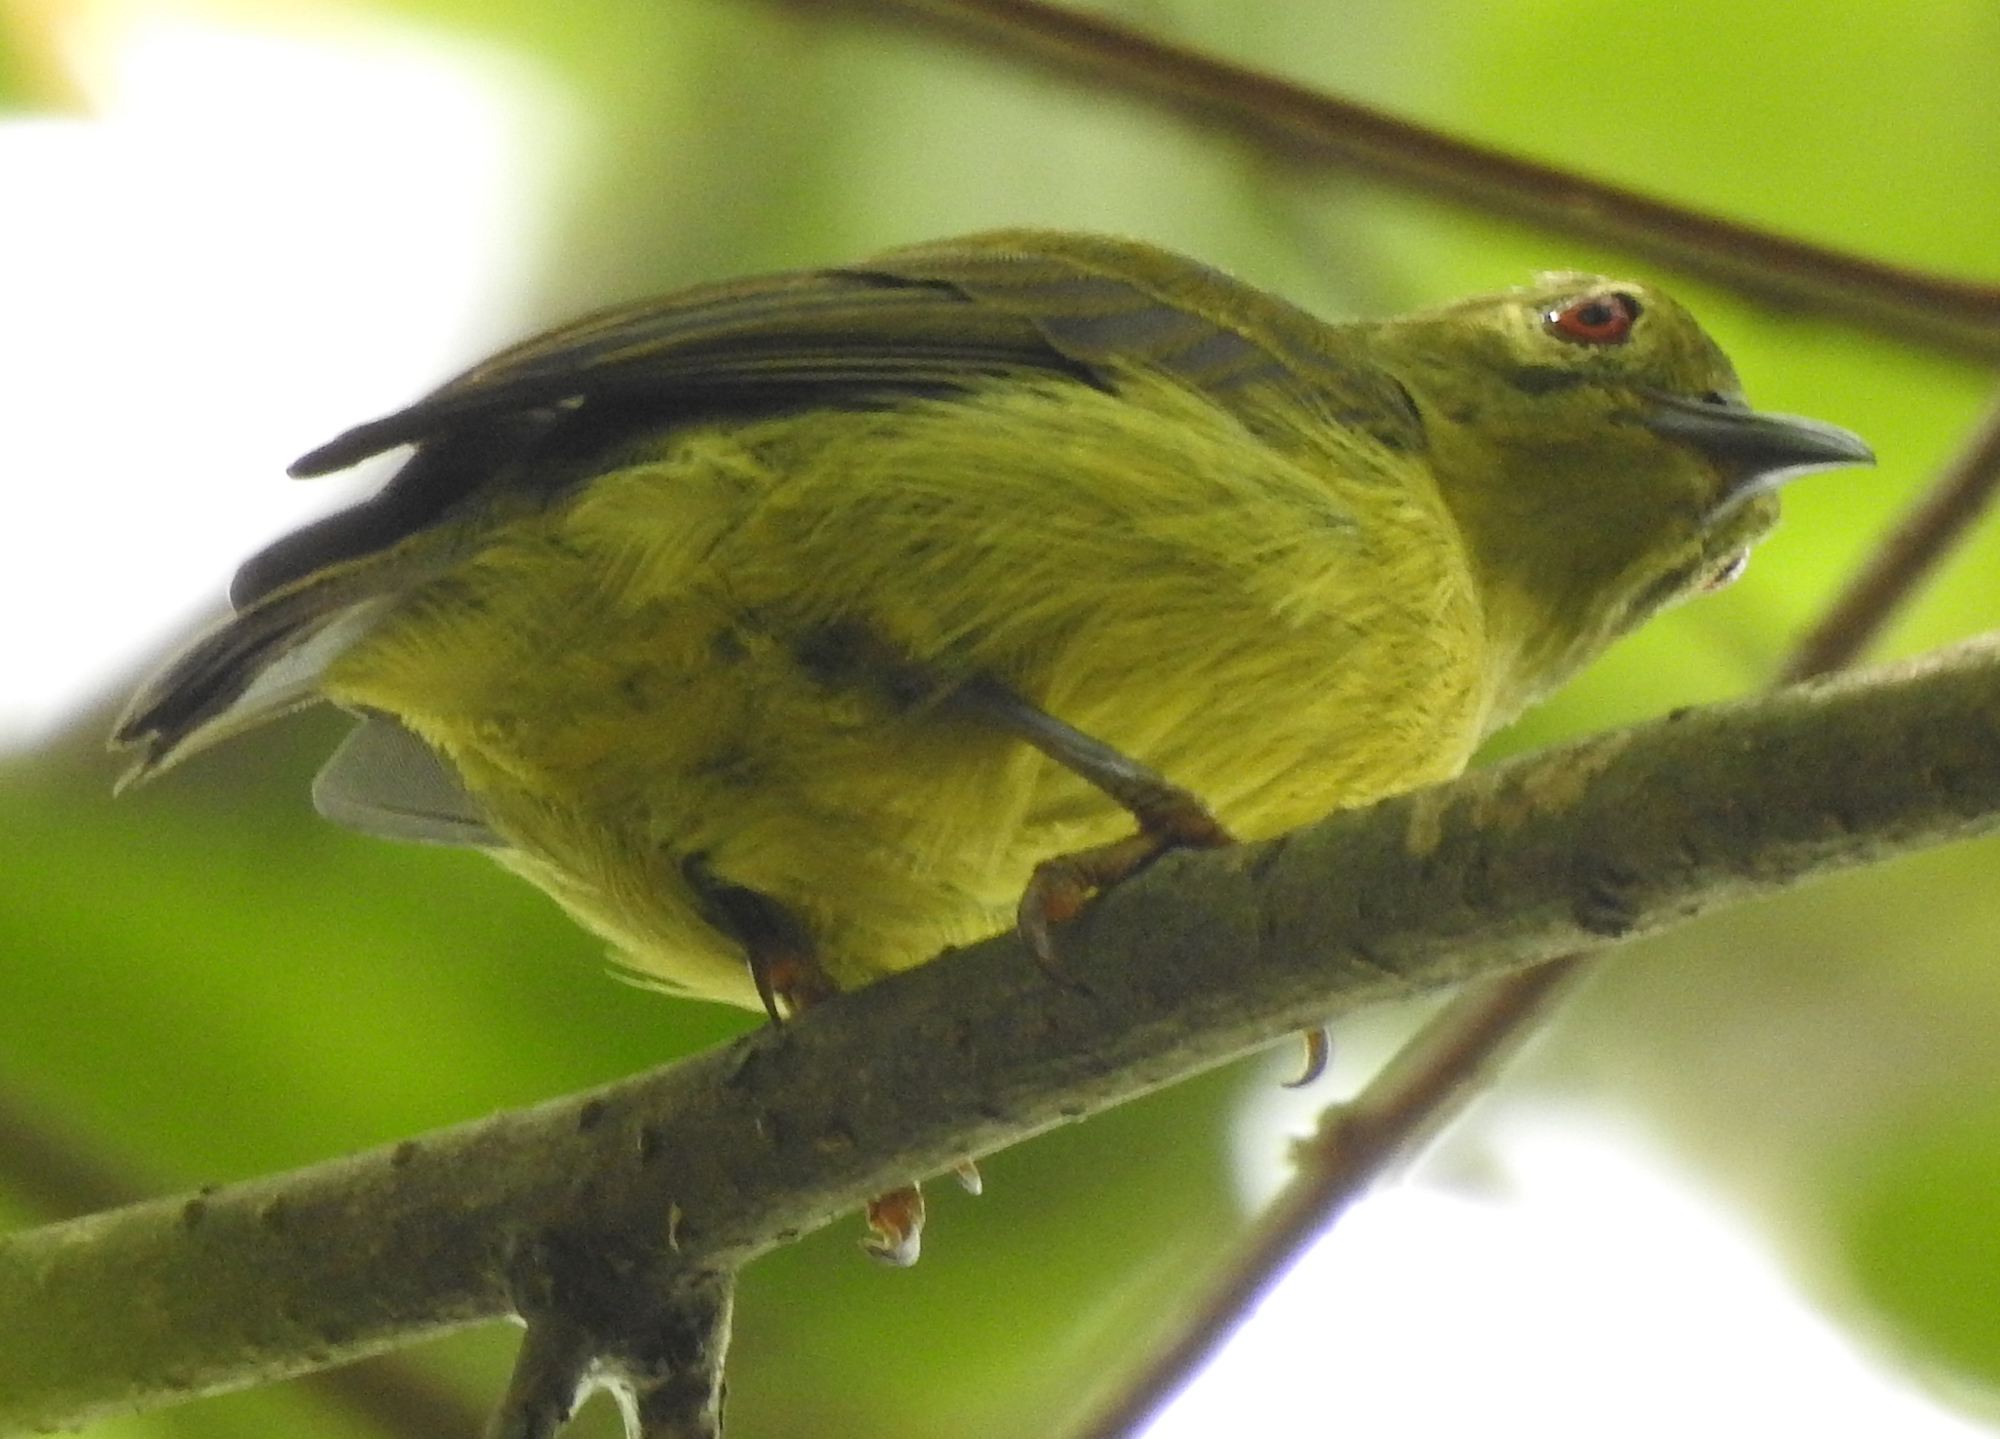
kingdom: Animalia
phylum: Chordata
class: Aves
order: Passeriformes
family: Nectariniidae
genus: Anthreptes
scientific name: Anthreptes malacensis
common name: Brown-throated sunbird
